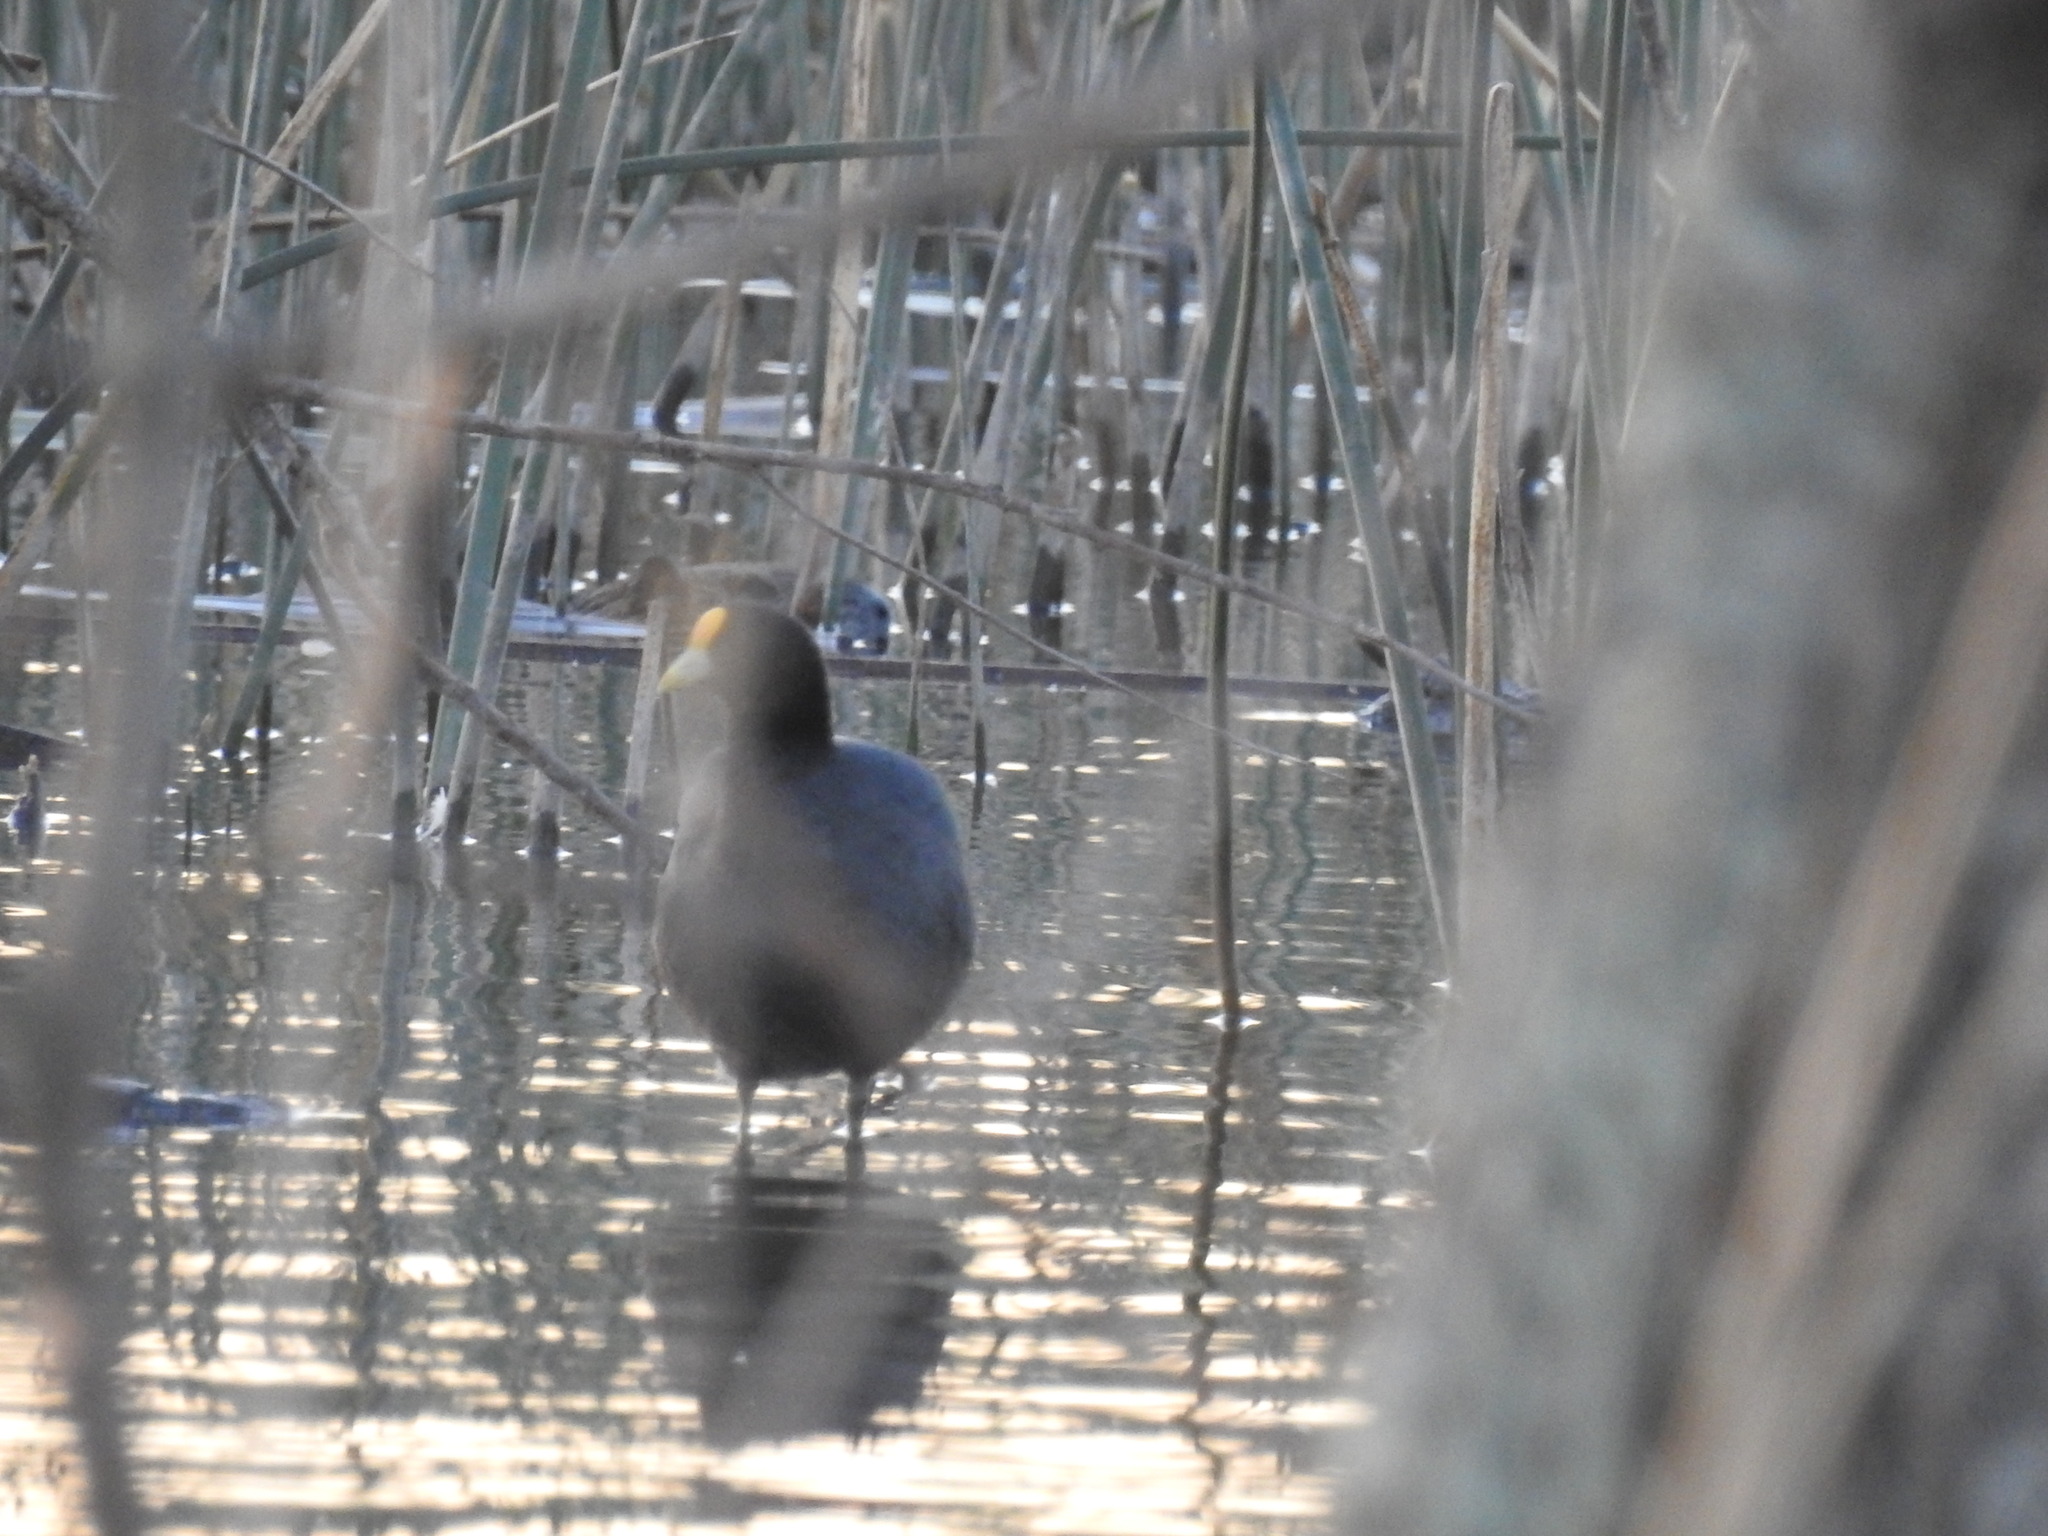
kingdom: Animalia
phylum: Chordata
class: Aves
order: Gruiformes
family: Rallidae
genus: Fulica
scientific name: Fulica leucoptera
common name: White-winged coot
